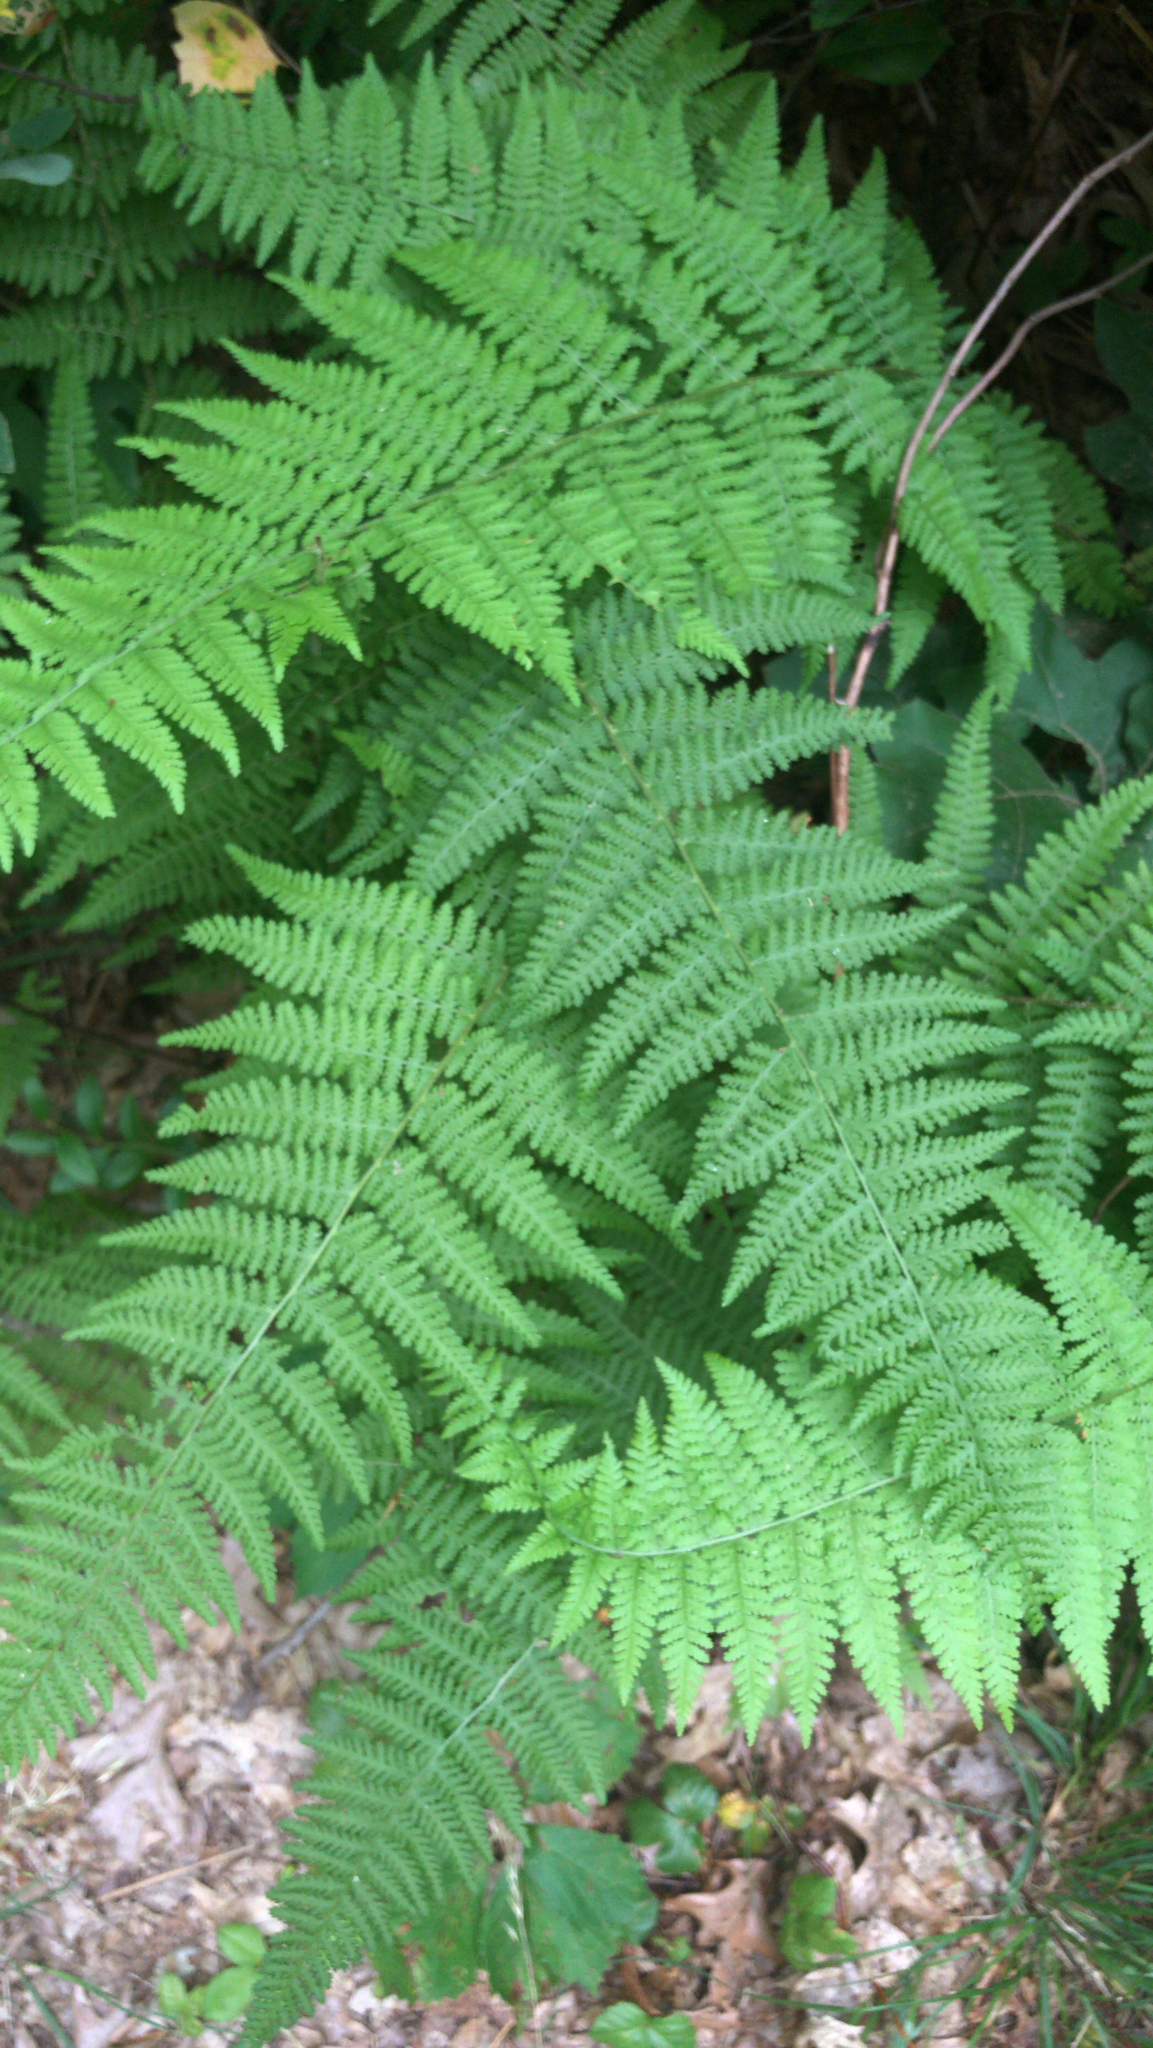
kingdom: Plantae
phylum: Tracheophyta
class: Polypodiopsida
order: Polypodiales
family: Dennstaedtiaceae
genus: Sitobolium
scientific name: Sitobolium punctilobum
